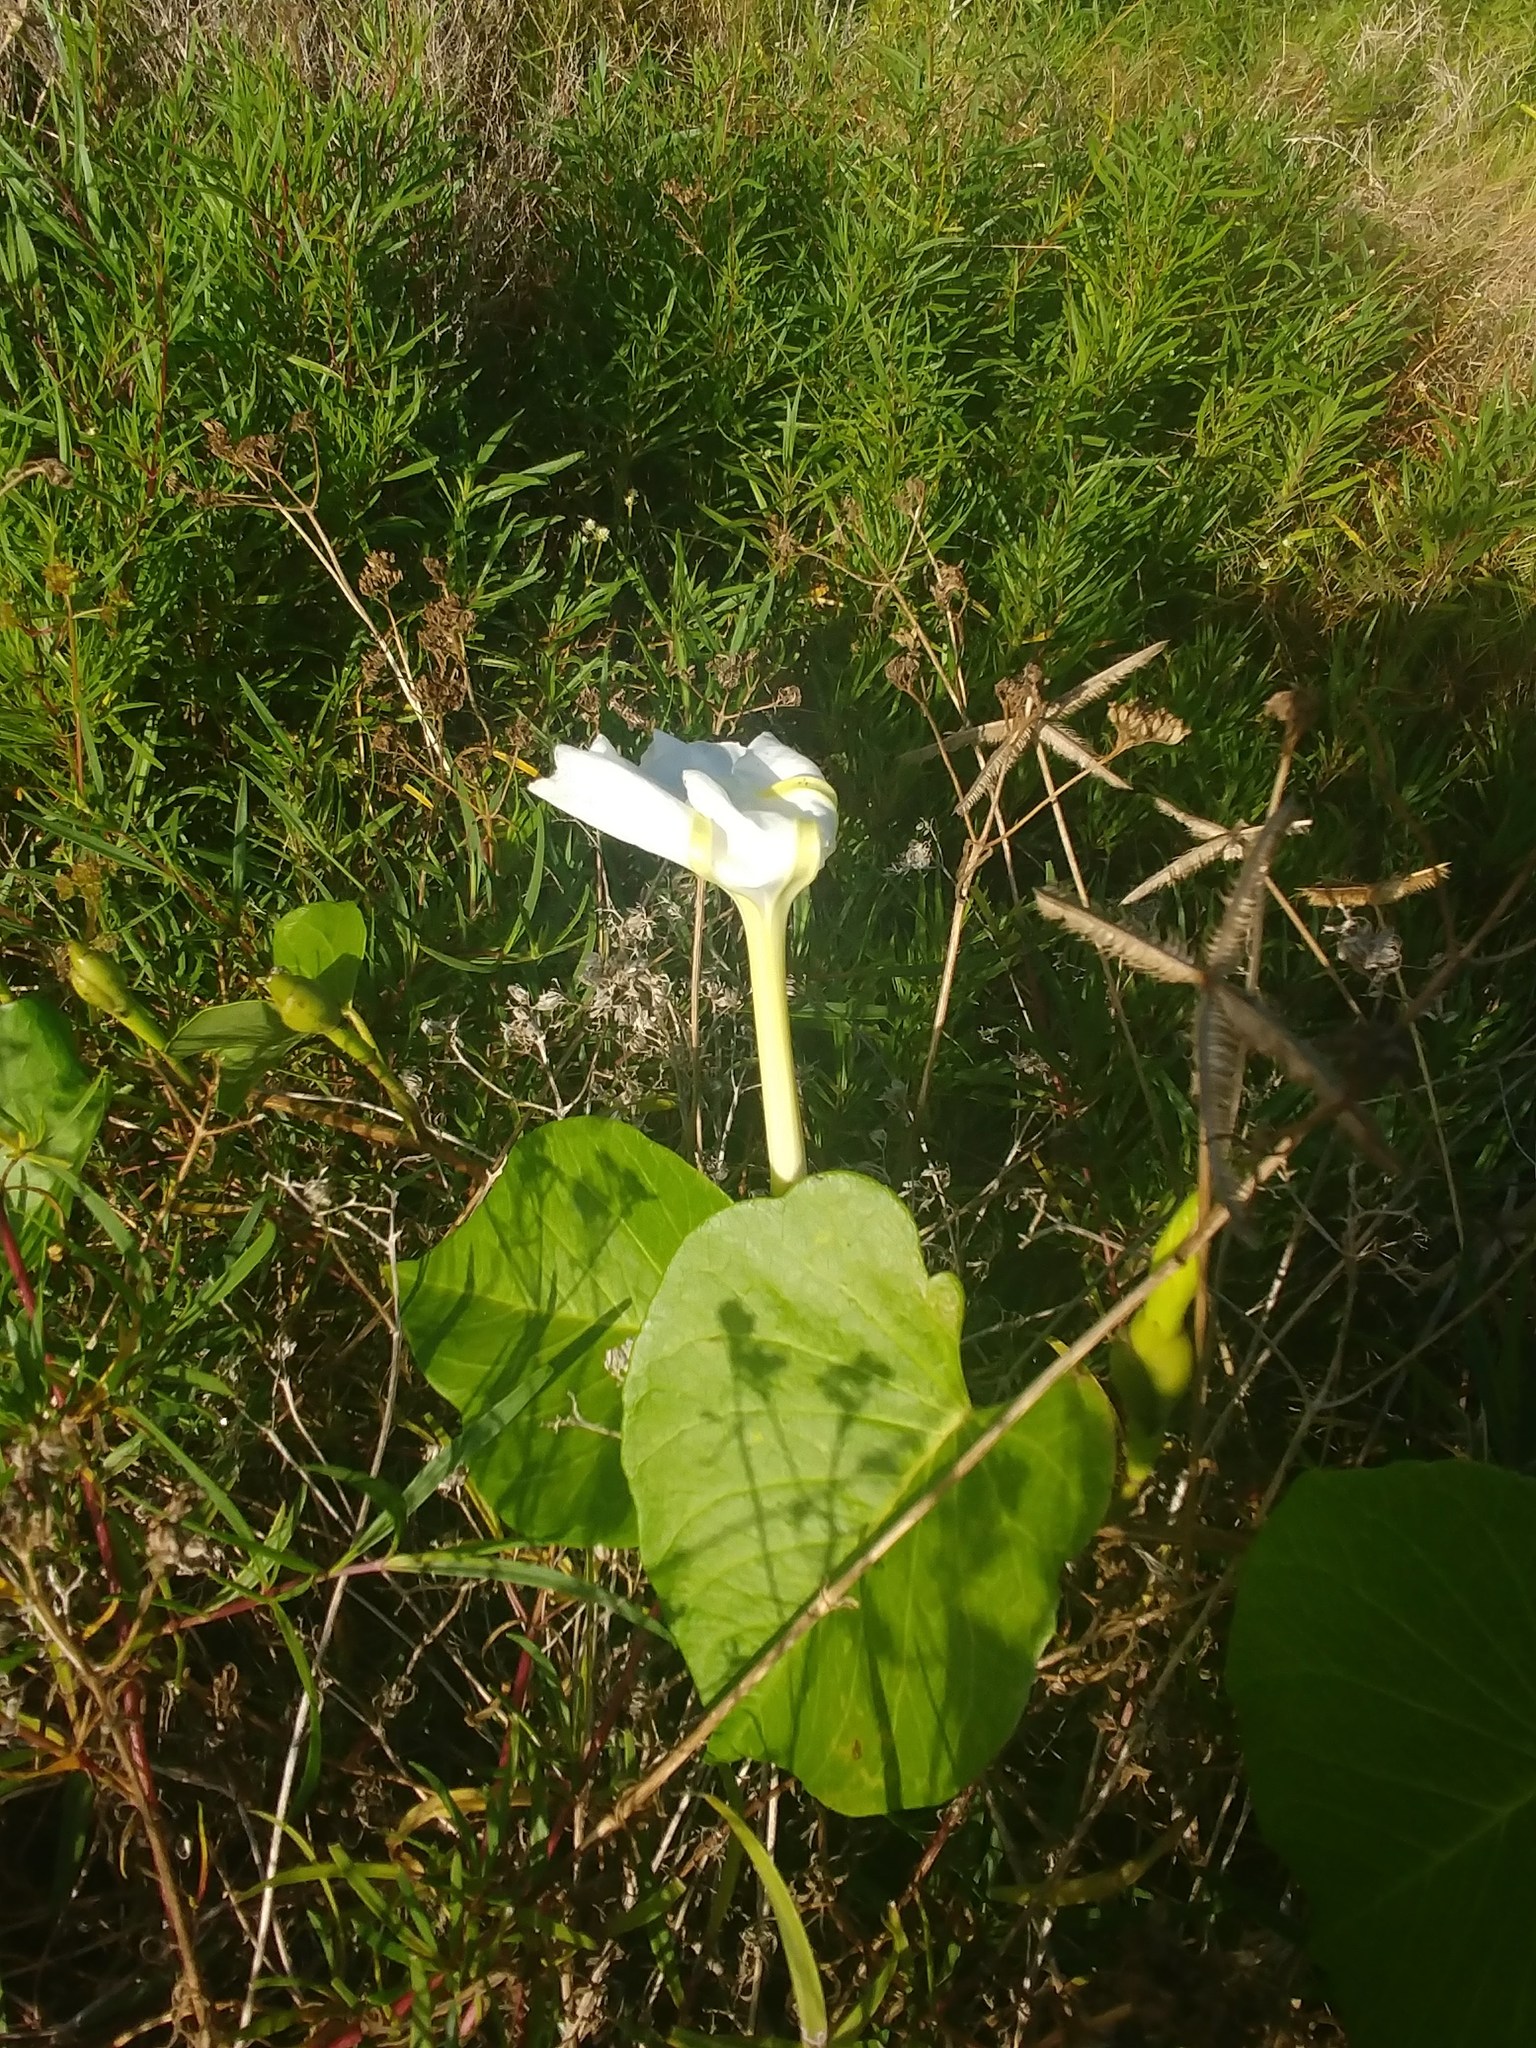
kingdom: Plantae
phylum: Tracheophyta
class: Magnoliopsida
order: Solanales
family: Convolvulaceae
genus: Ipomoea
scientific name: Ipomoea violacea
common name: Beach moonflower
